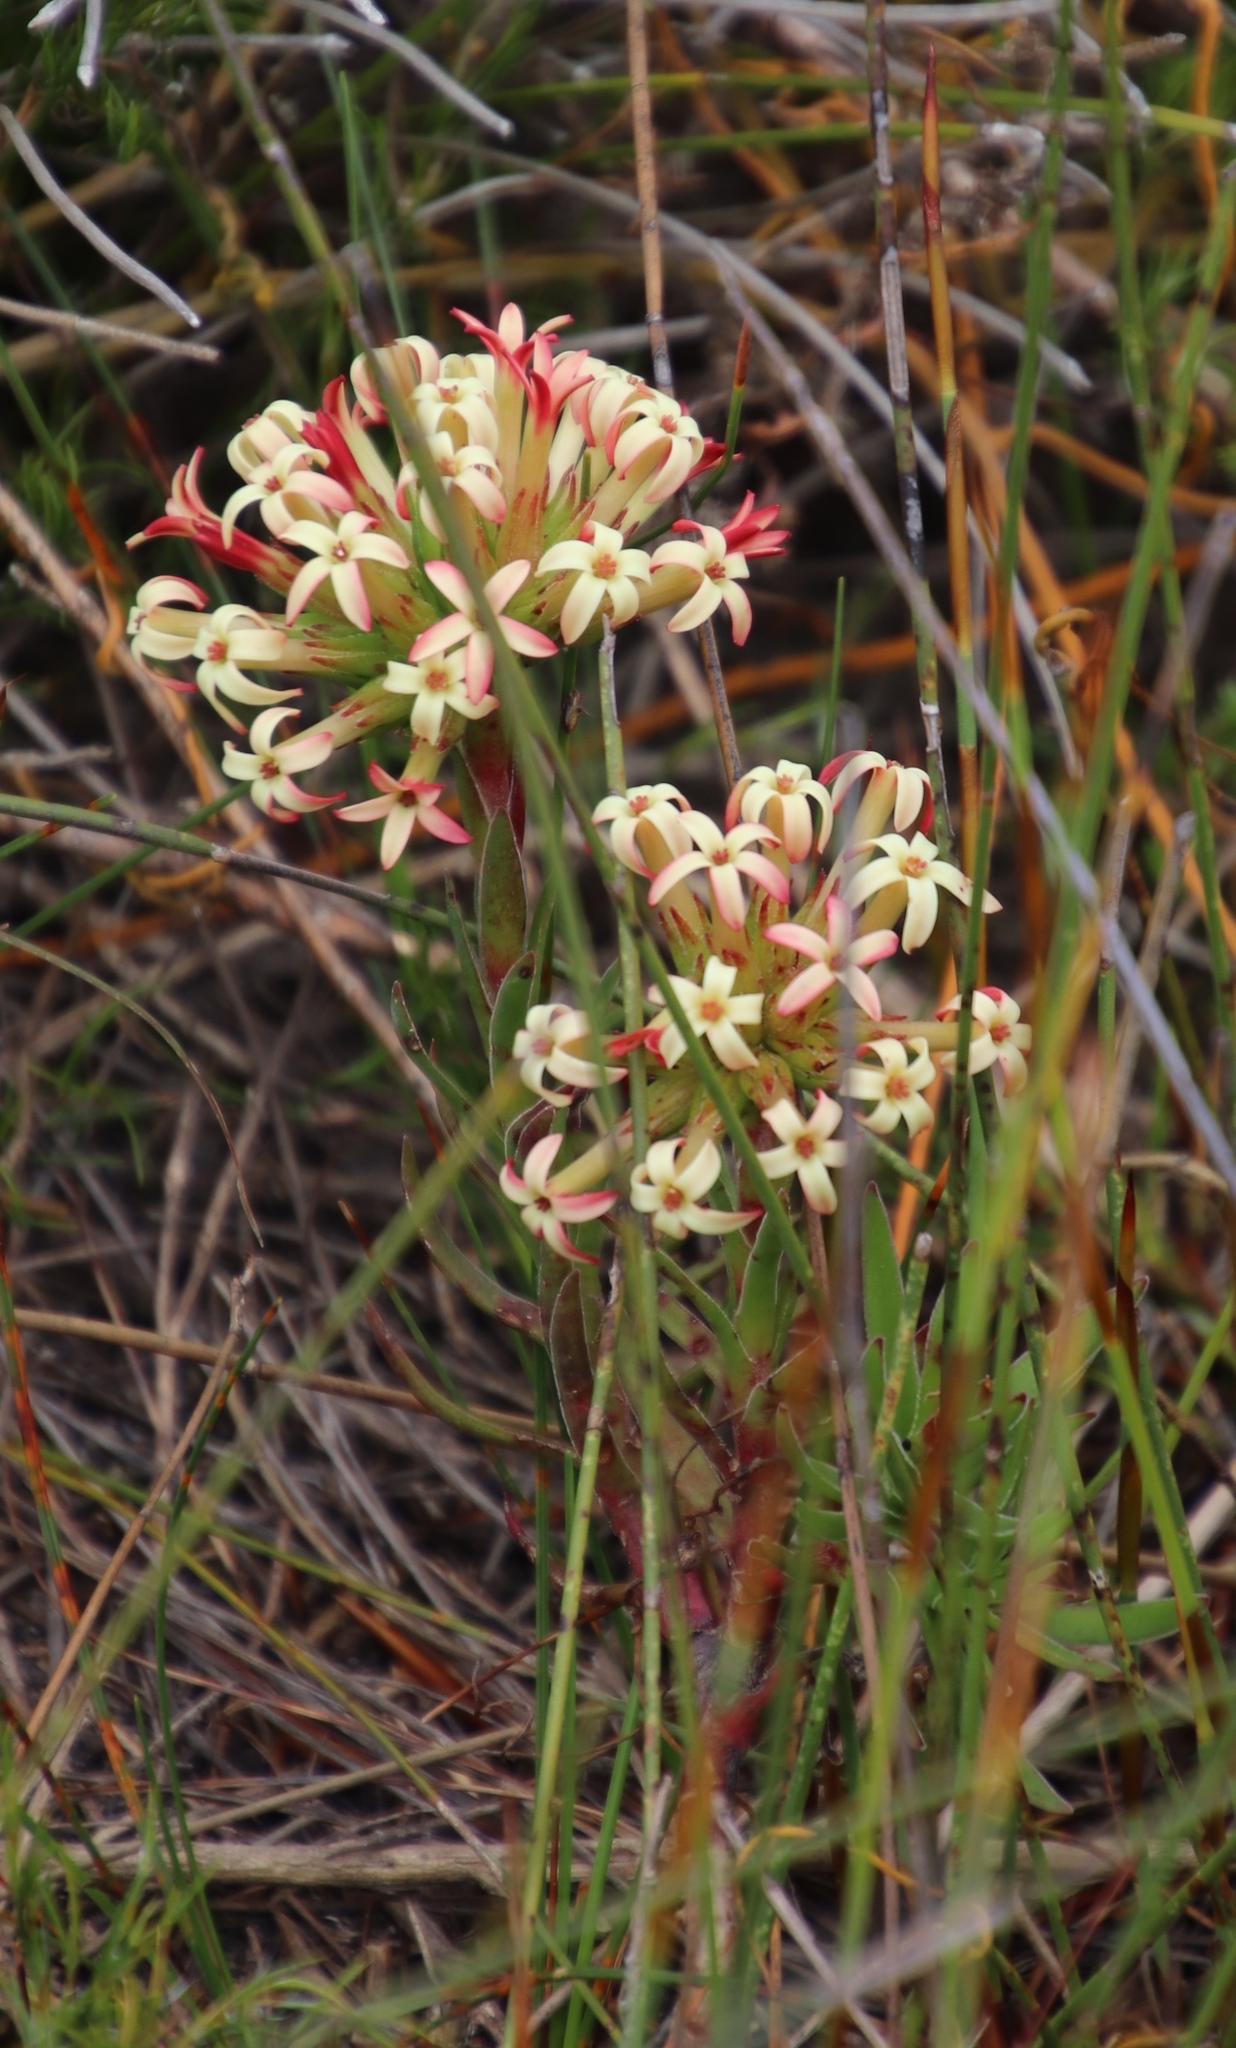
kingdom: Plantae
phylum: Tracheophyta
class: Magnoliopsida
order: Saxifragales
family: Crassulaceae
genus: Crassula
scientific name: Crassula fascicularis
